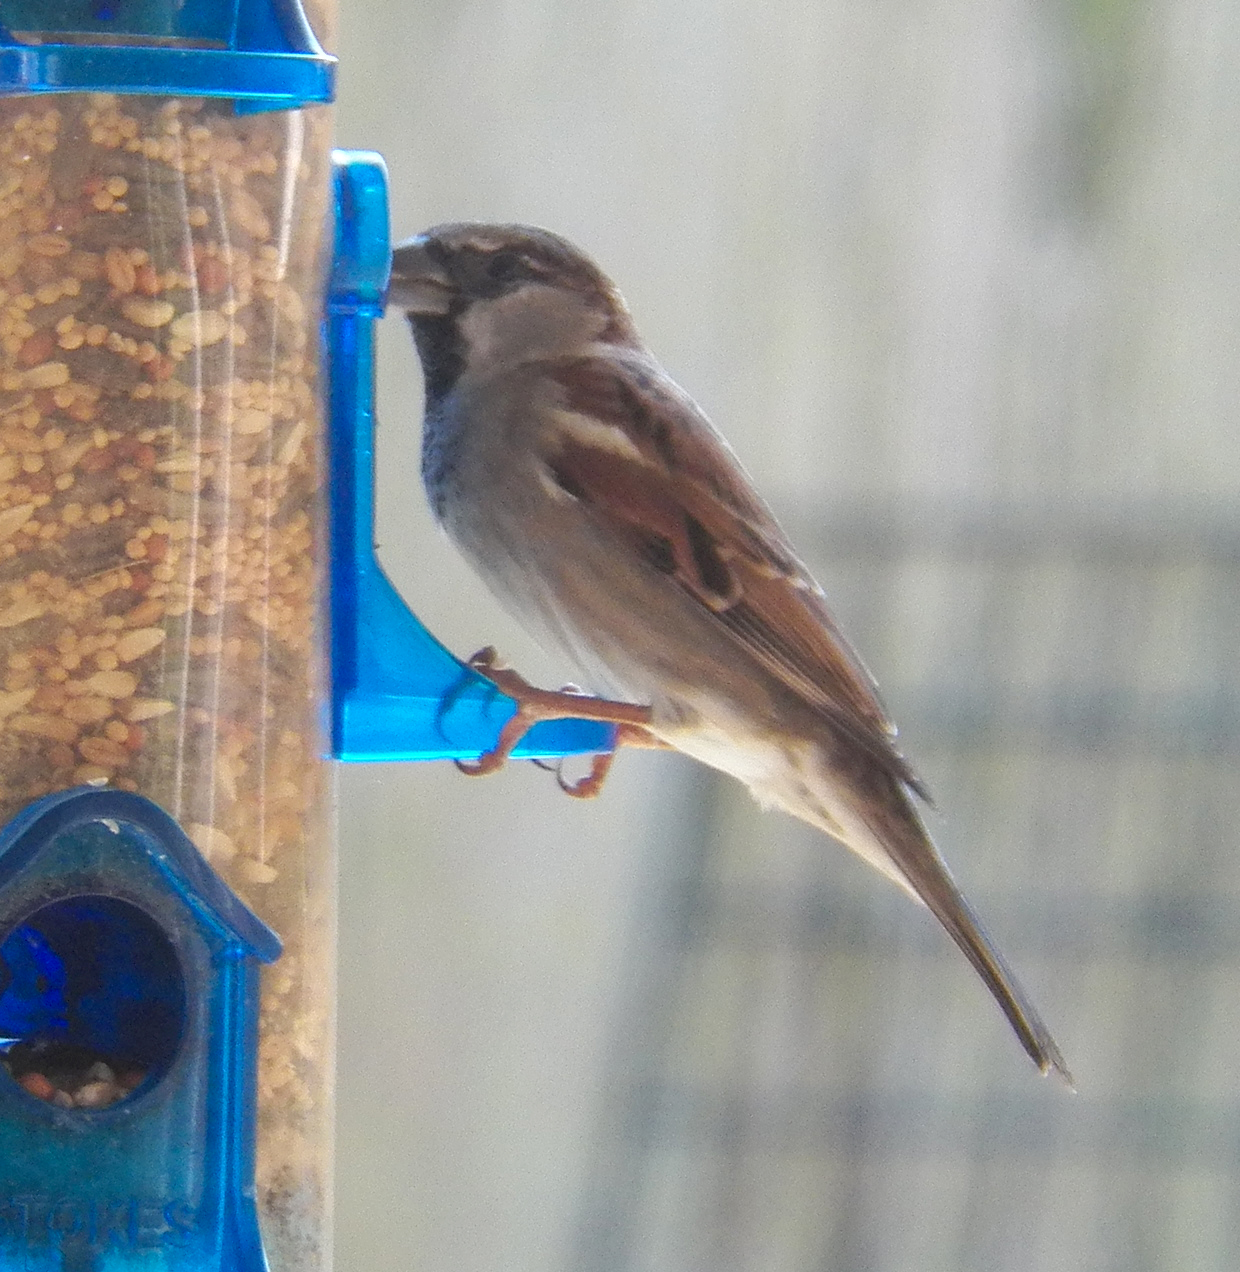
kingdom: Animalia
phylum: Chordata
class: Aves
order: Passeriformes
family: Passeridae
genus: Passer
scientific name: Passer domesticus
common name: House sparrow
